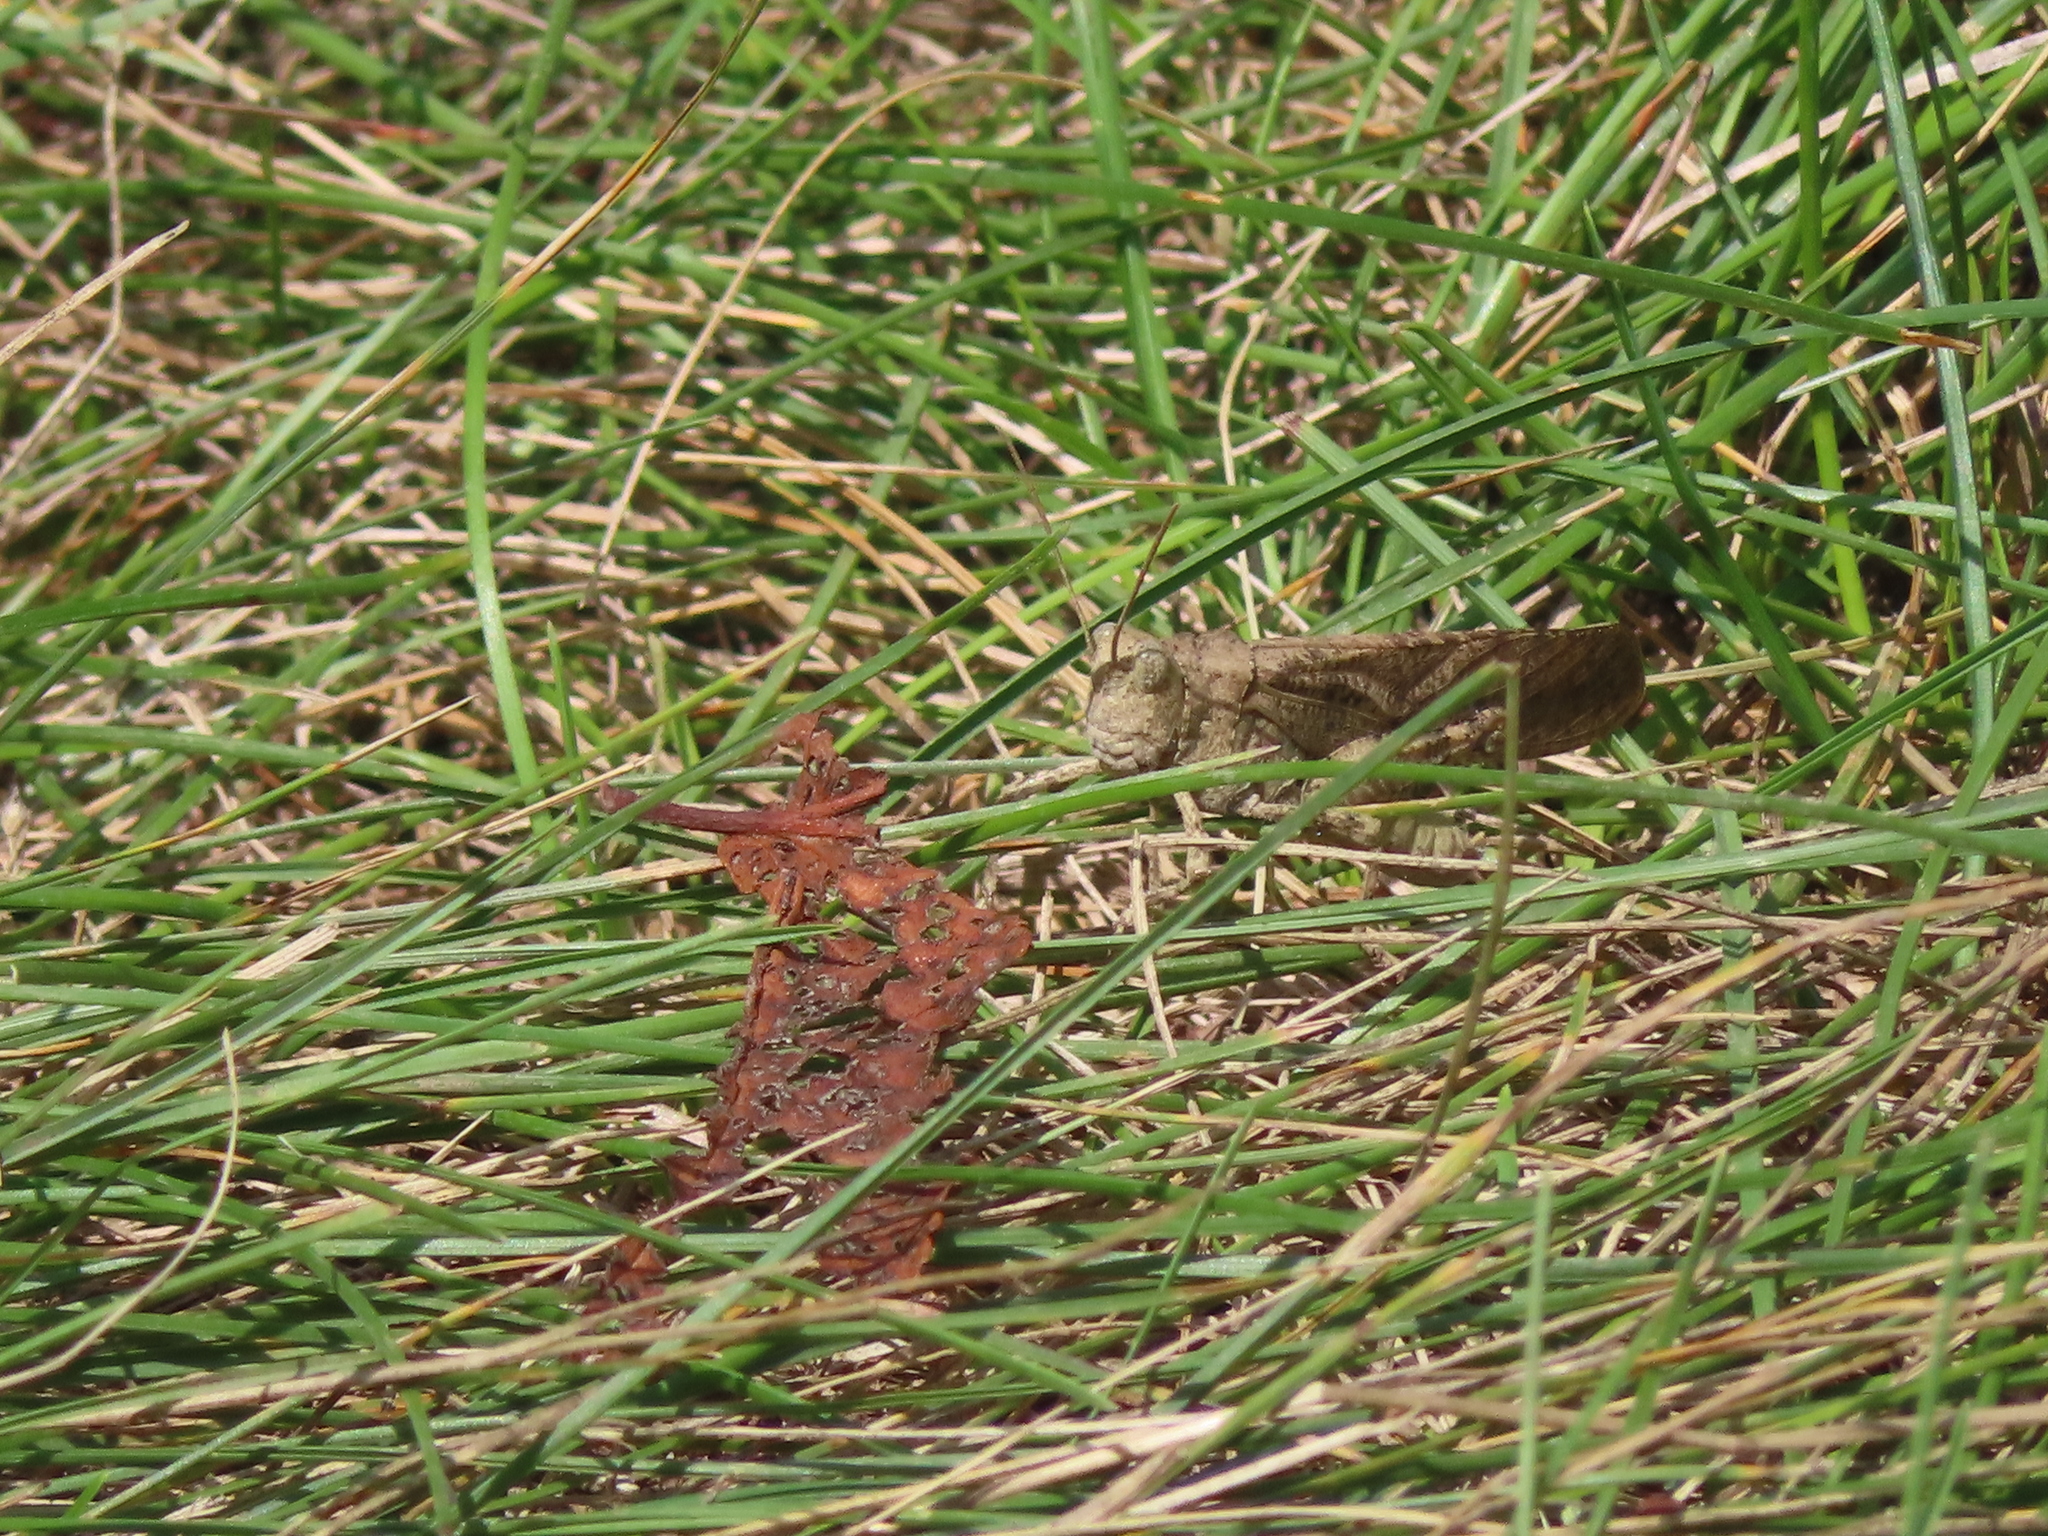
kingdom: Animalia
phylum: Arthropoda
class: Insecta
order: Orthoptera
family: Acrididae
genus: Dissosteira
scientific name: Dissosteira carolina
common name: Carolina grasshopper
